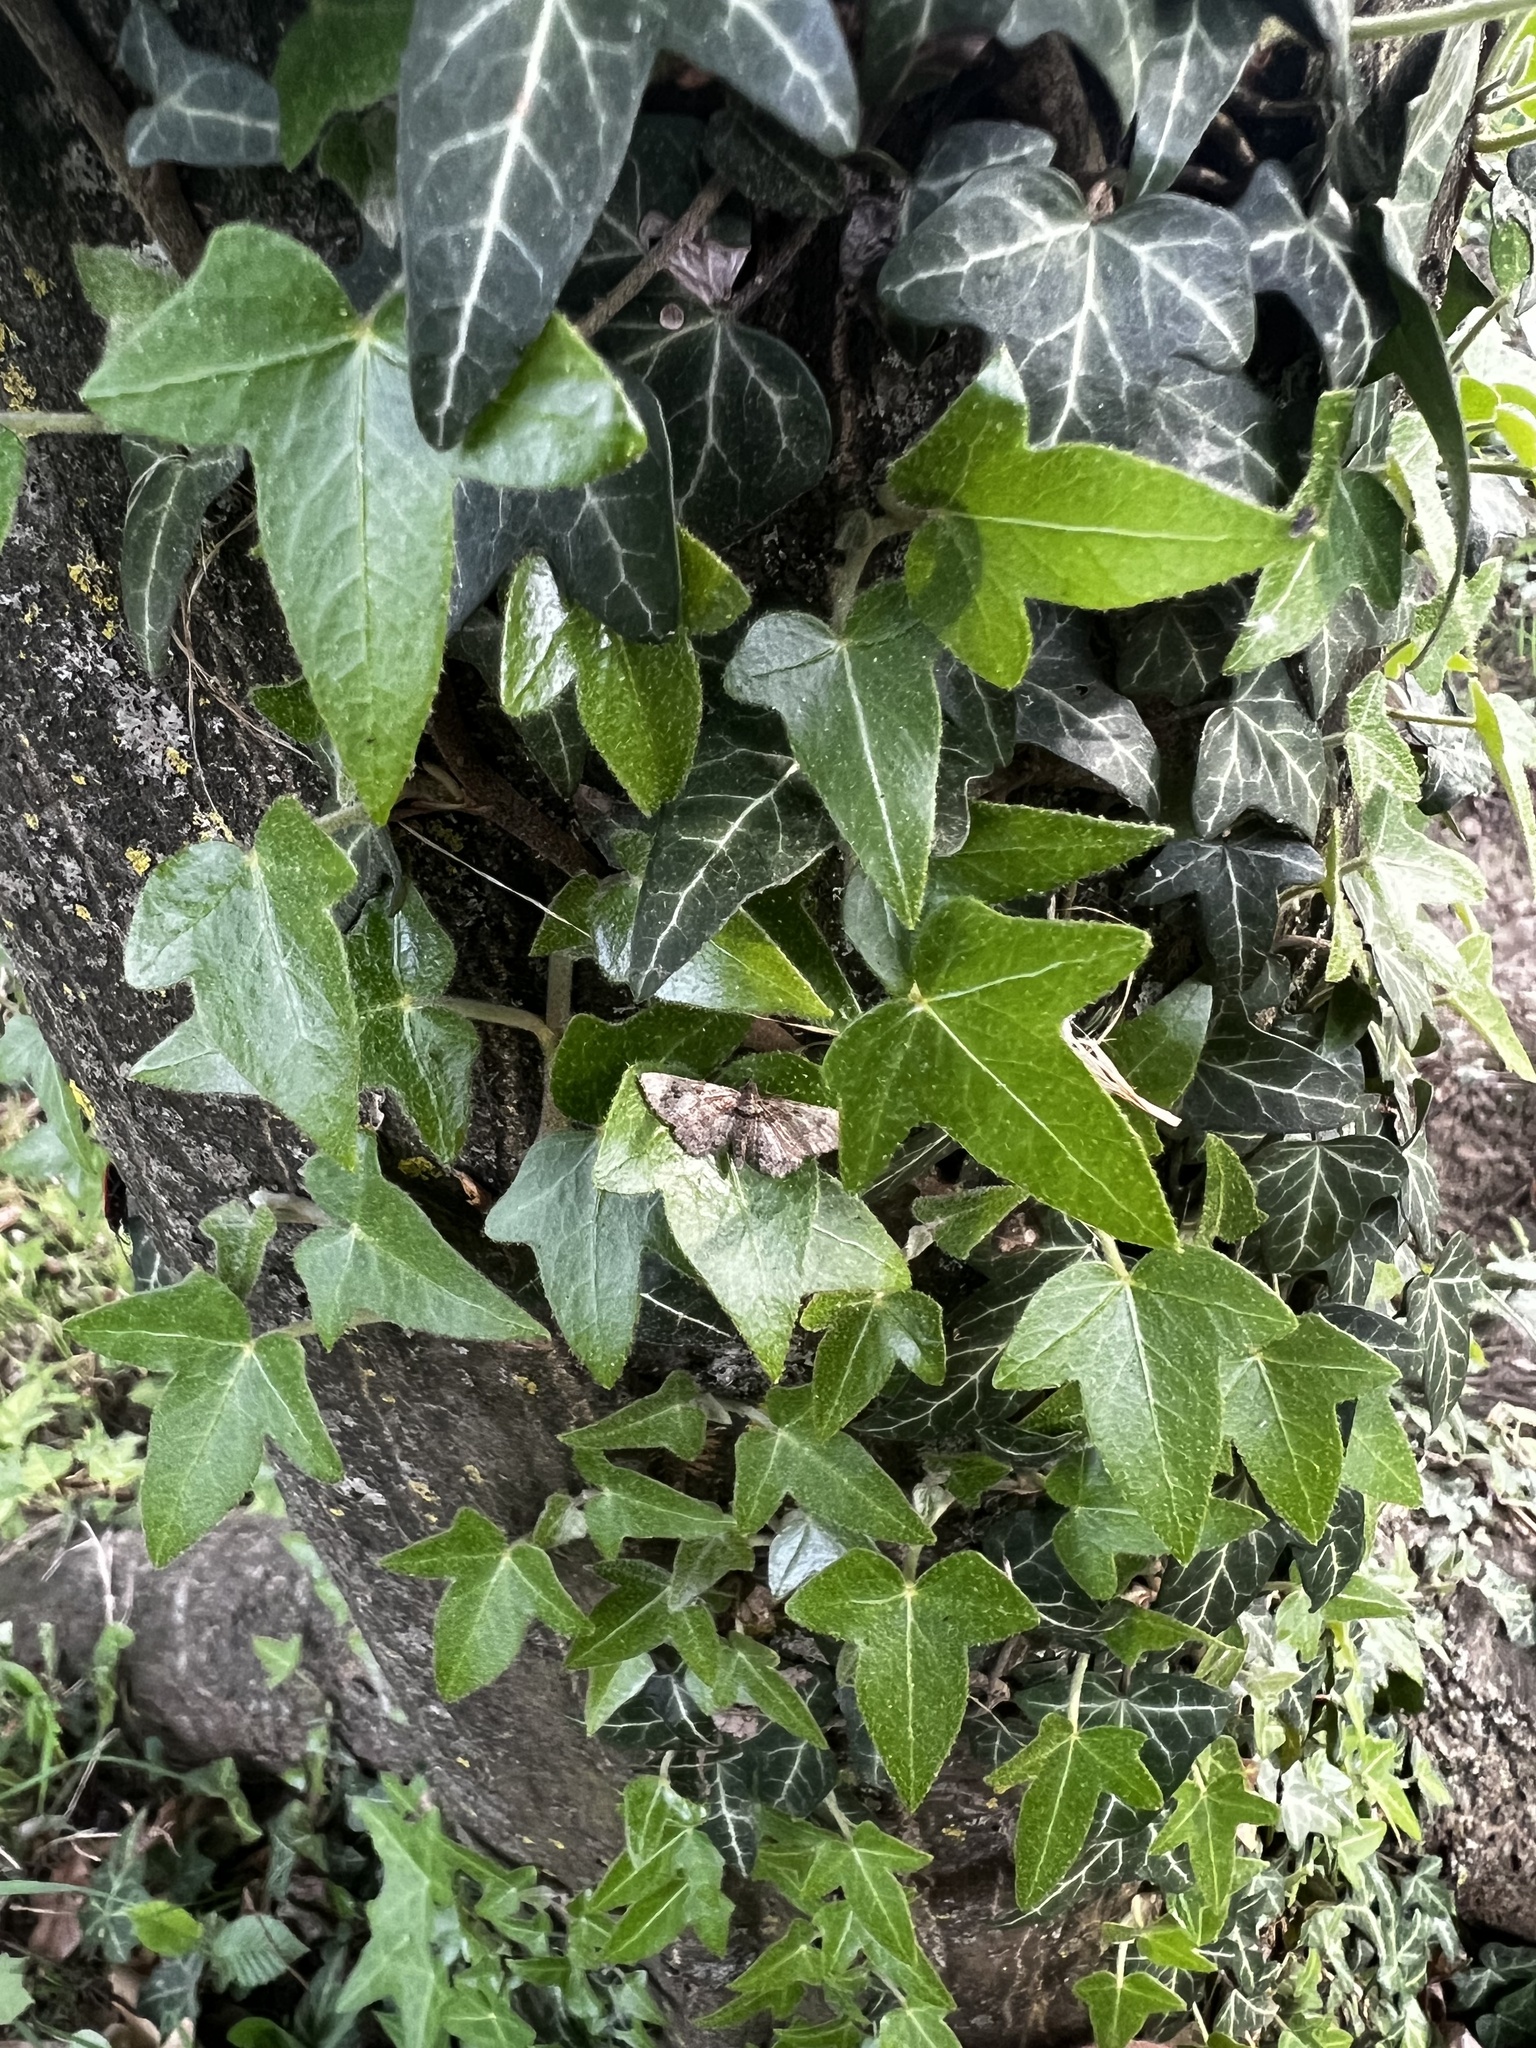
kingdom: Animalia
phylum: Arthropoda
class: Insecta
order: Lepidoptera
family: Geometridae
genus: Gymnoscelis
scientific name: Gymnoscelis rufifasciata
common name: Double-striped pug
